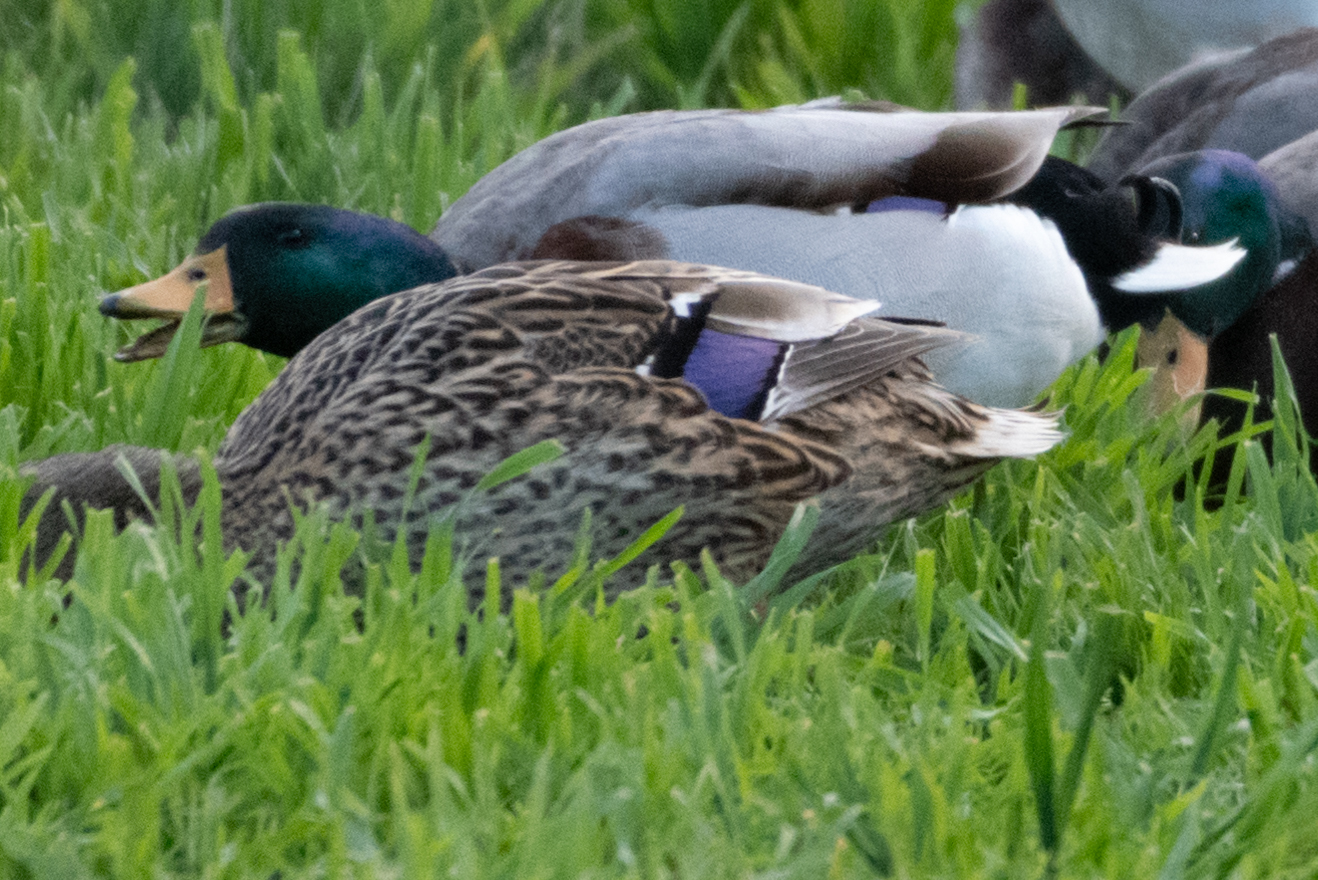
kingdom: Animalia
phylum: Chordata
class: Aves
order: Anseriformes
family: Anatidae
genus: Anas
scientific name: Anas platyrhynchos
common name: Mallard
